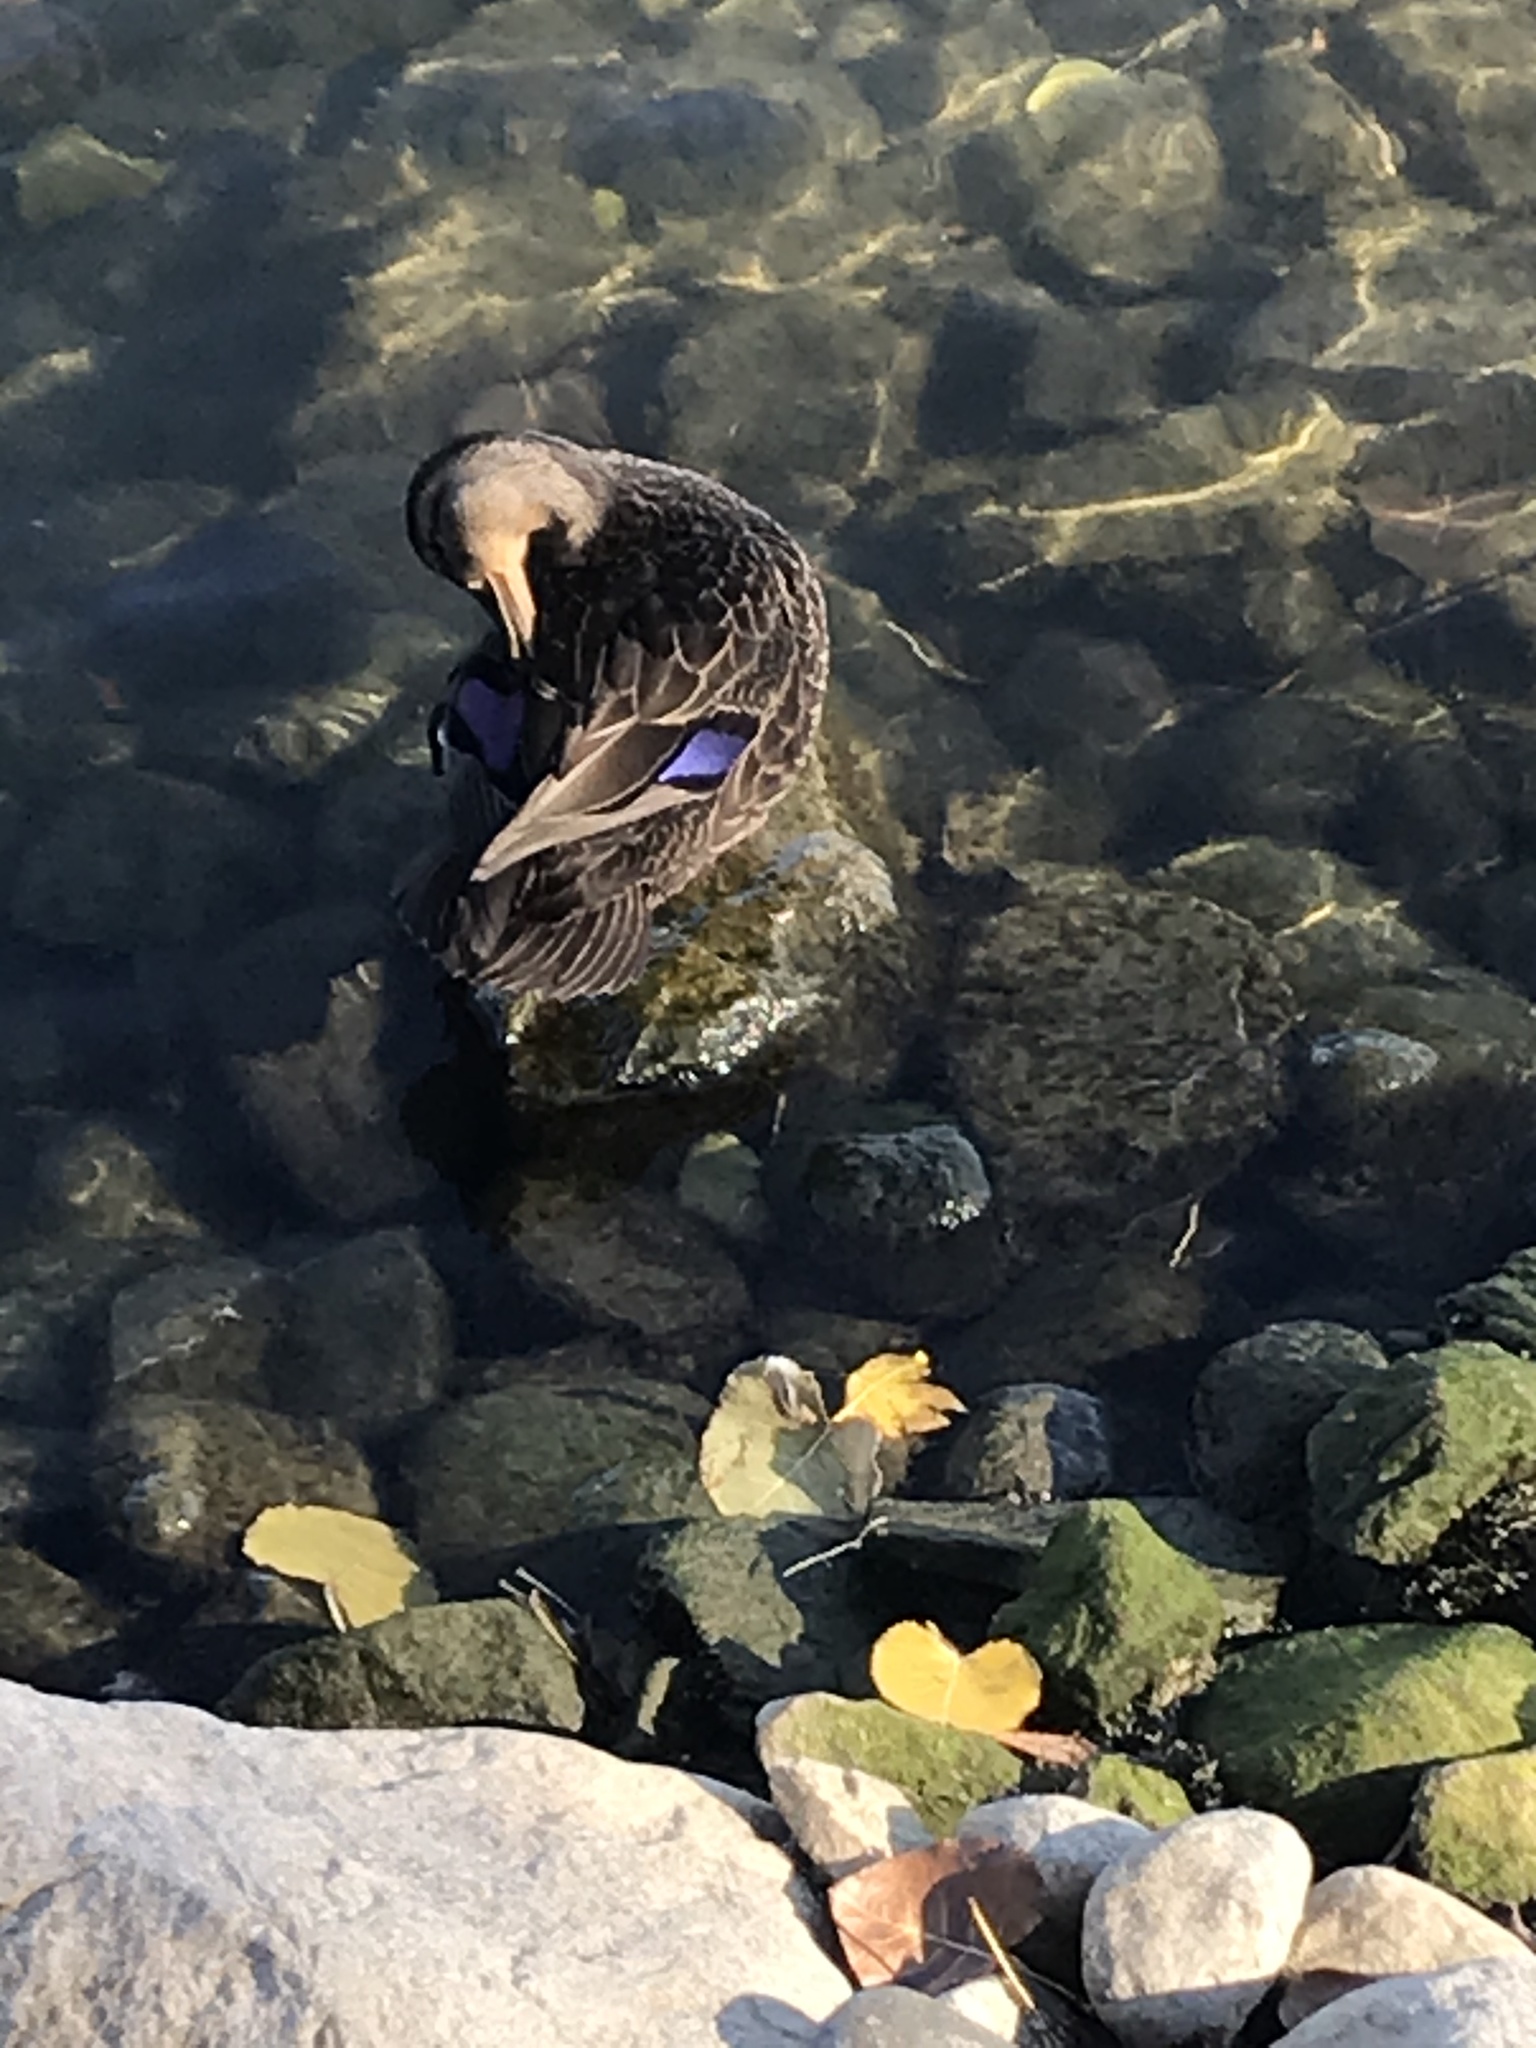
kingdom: Animalia
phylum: Chordata
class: Aves
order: Anseriformes
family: Anatidae
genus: Anas
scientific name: Anas platyrhynchos
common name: Mallard
